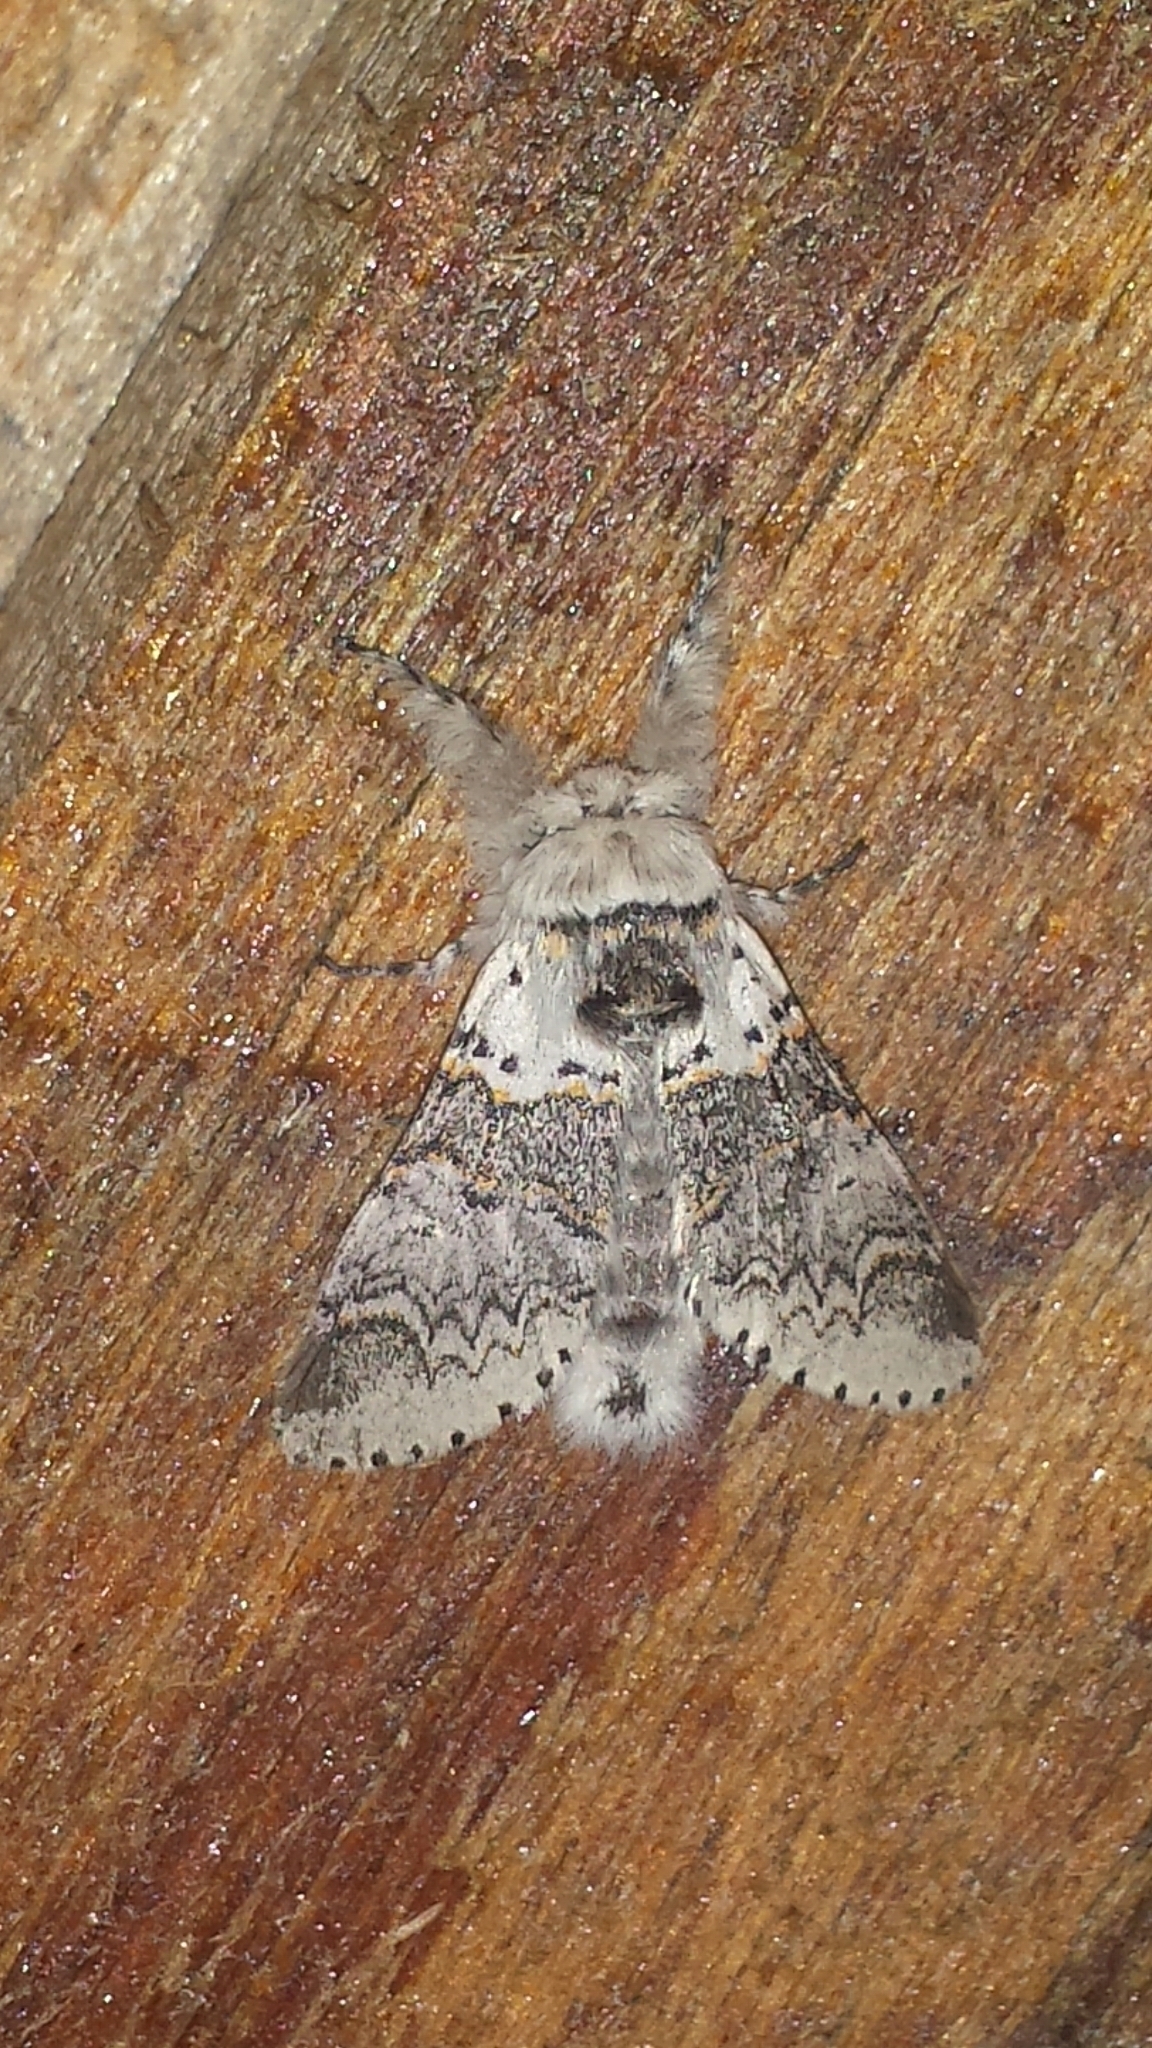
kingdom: Animalia
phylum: Arthropoda
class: Insecta
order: Lepidoptera
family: Notodontidae
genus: Furcula
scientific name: Furcula occidentalis
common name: Western furcula moth
